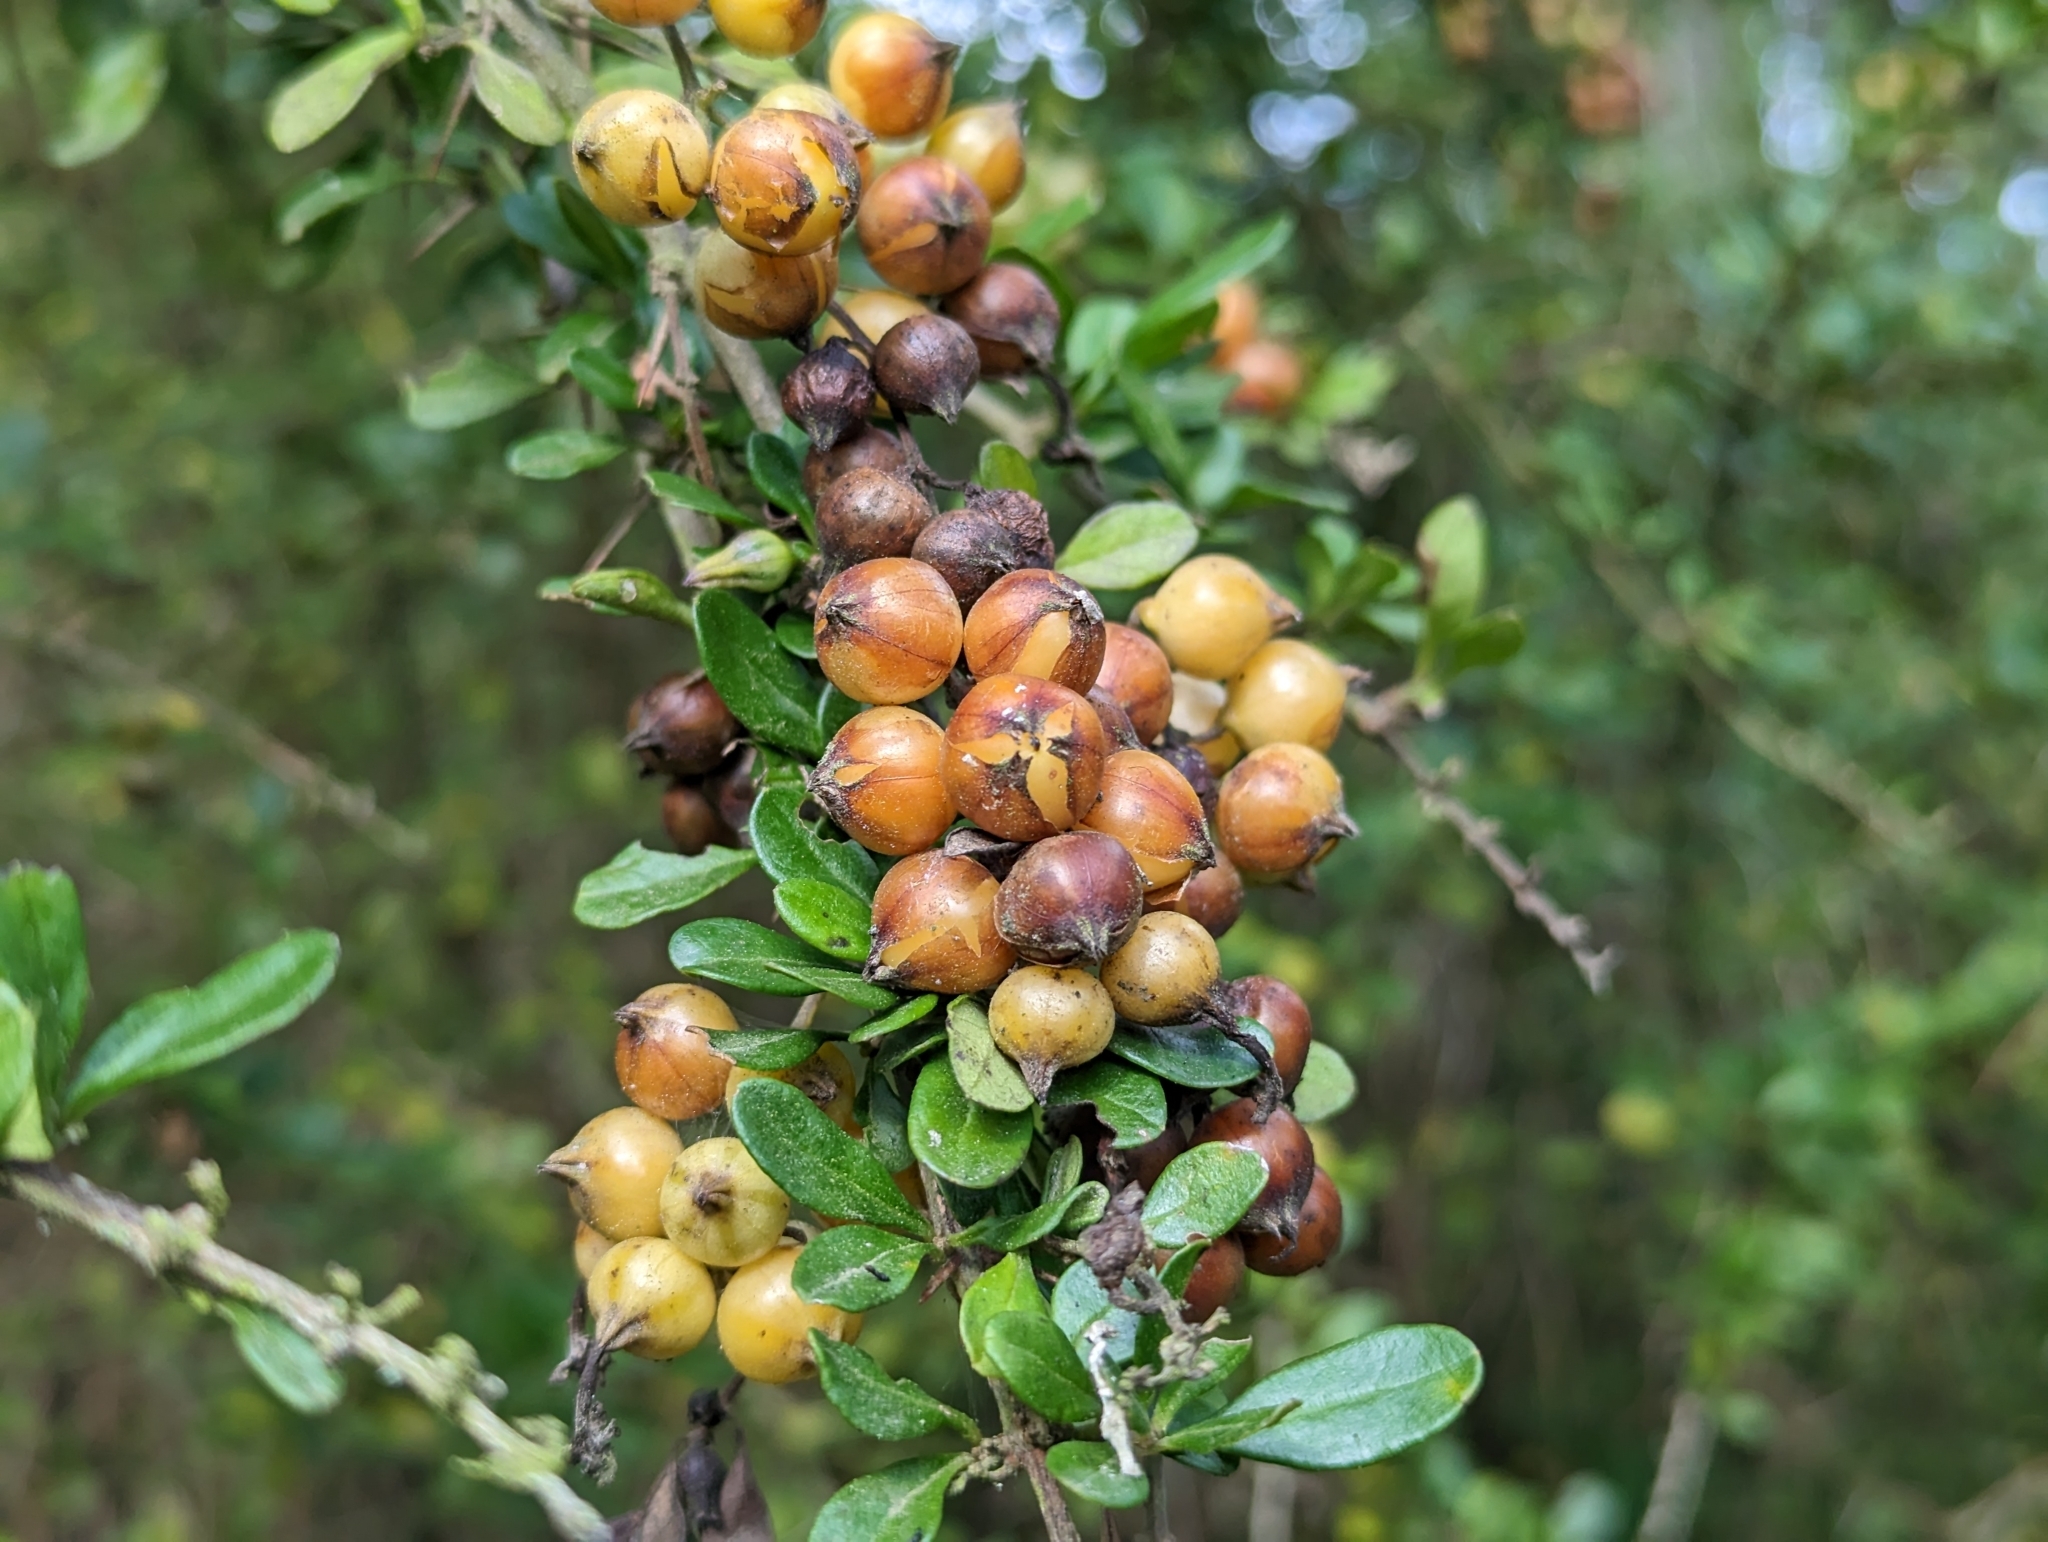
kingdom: Plantae
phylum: Tracheophyta
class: Magnoliopsida
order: Lamiales
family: Verbenaceae
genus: Duranta
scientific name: Duranta triacantha
